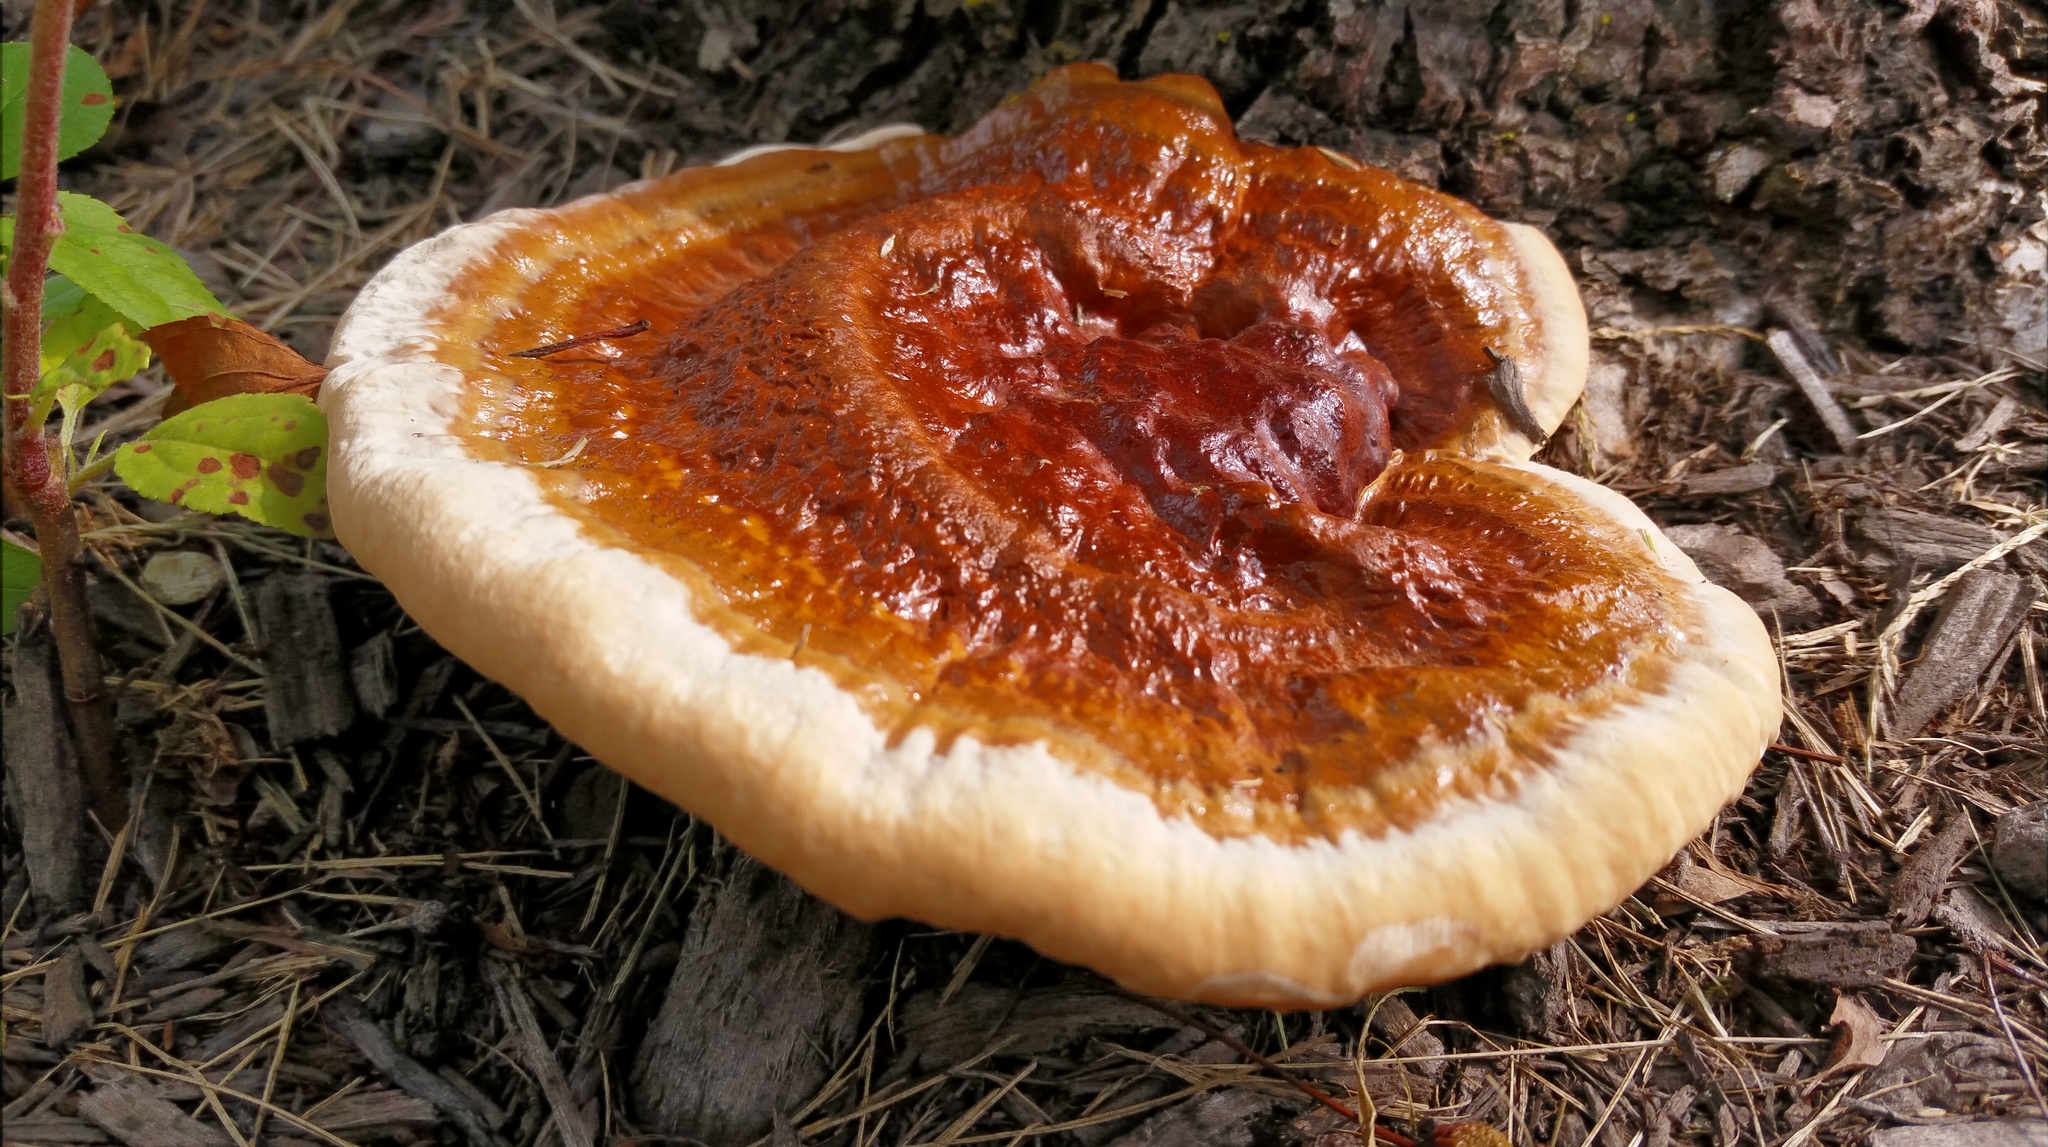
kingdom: Fungi
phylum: Basidiomycota
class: Agaricomycetes
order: Polyporales
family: Polyporaceae
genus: Ganoderma
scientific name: Ganoderma resinaceum
